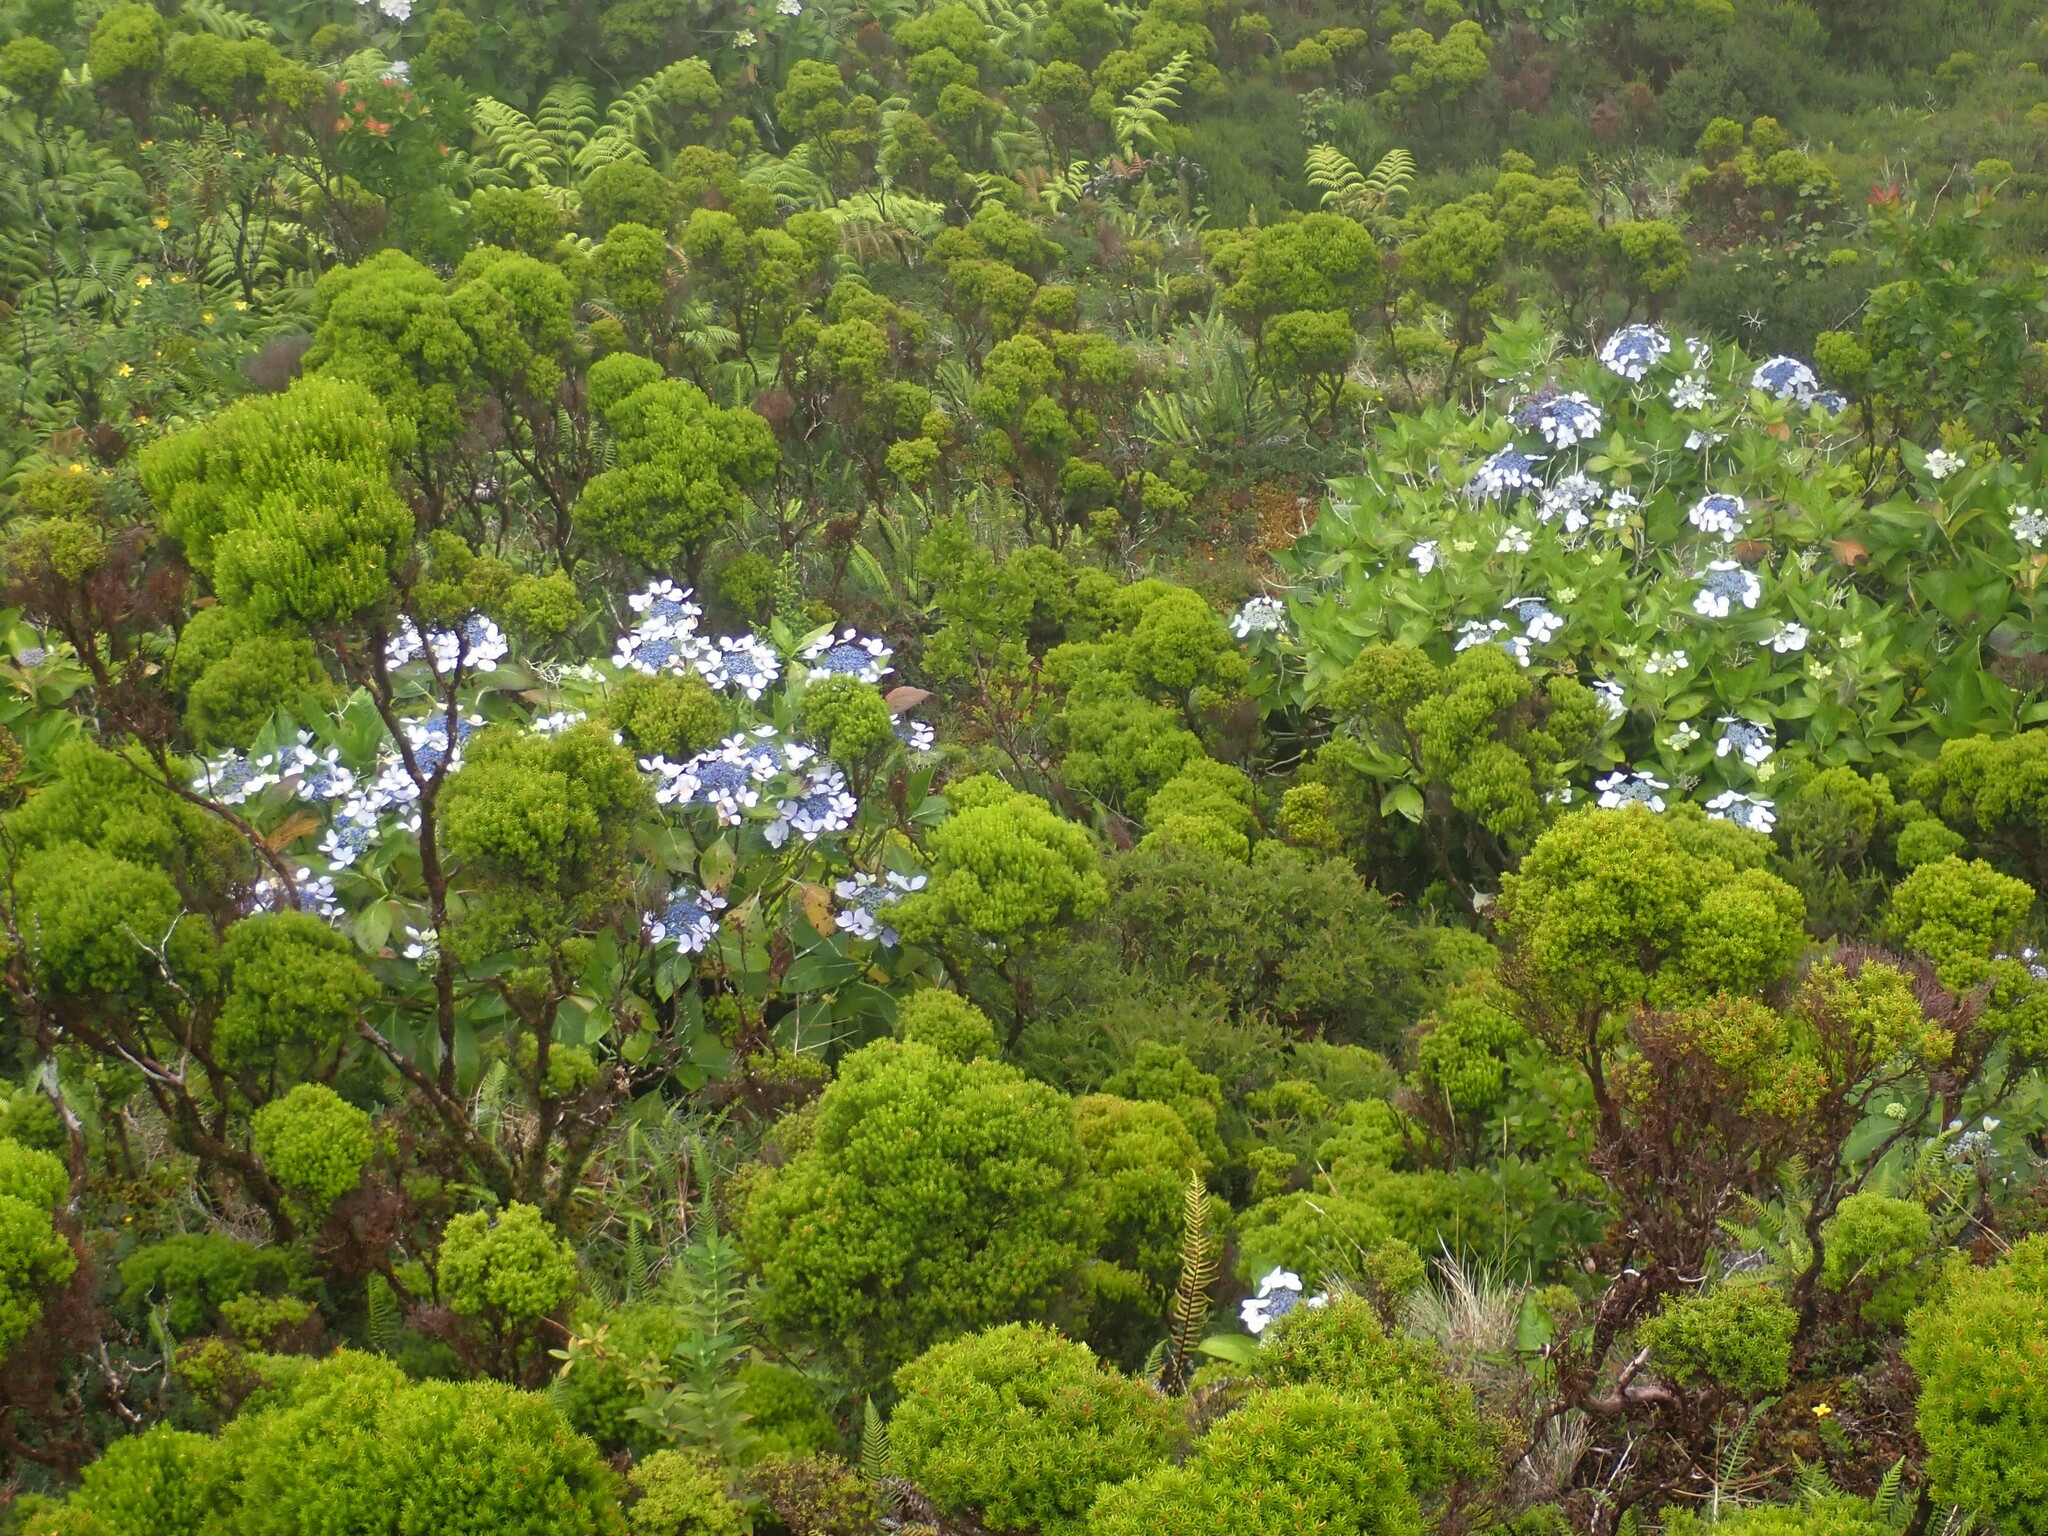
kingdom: Plantae
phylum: Tracheophyta
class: Magnoliopsida
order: Ericales
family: Ericaceae
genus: Erica
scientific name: Erica azorica
